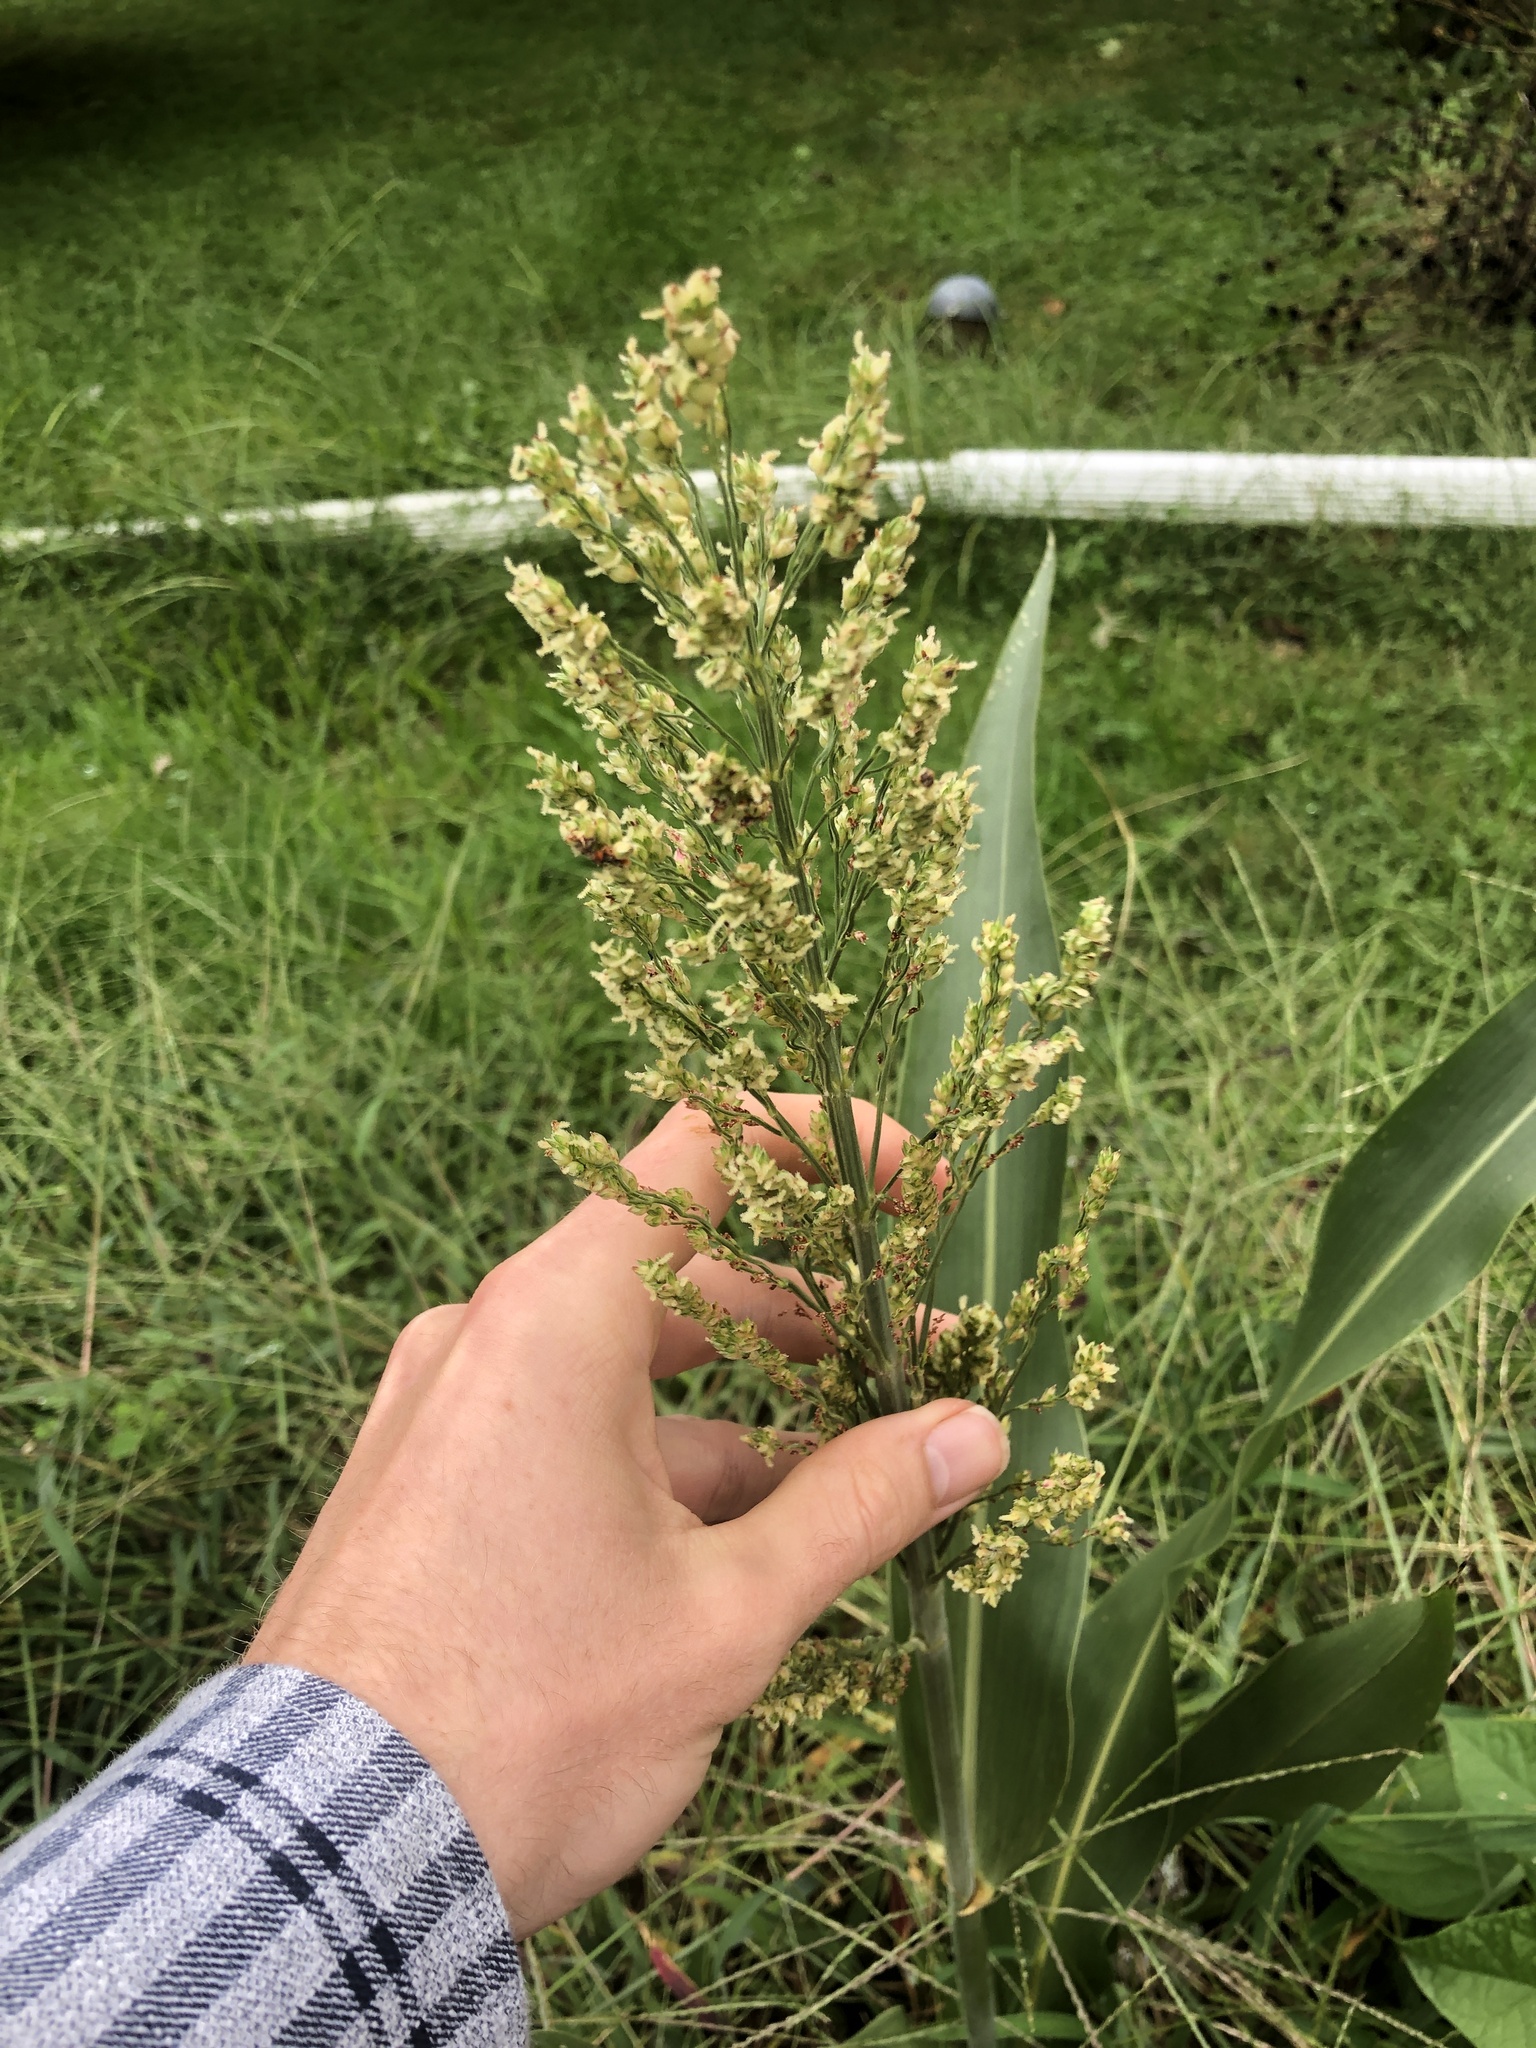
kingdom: Plantae
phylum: Tracheophyta
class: Liliopsida
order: Poales
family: Poaceae
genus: Sorghum
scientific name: Sorghum bicolor
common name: Sorghum
